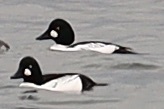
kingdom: Animalia
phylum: Chordata
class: Aves
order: Anseriformes
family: Anatidae
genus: Bucephala
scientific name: Bucephala clangula
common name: Common goldeneye
